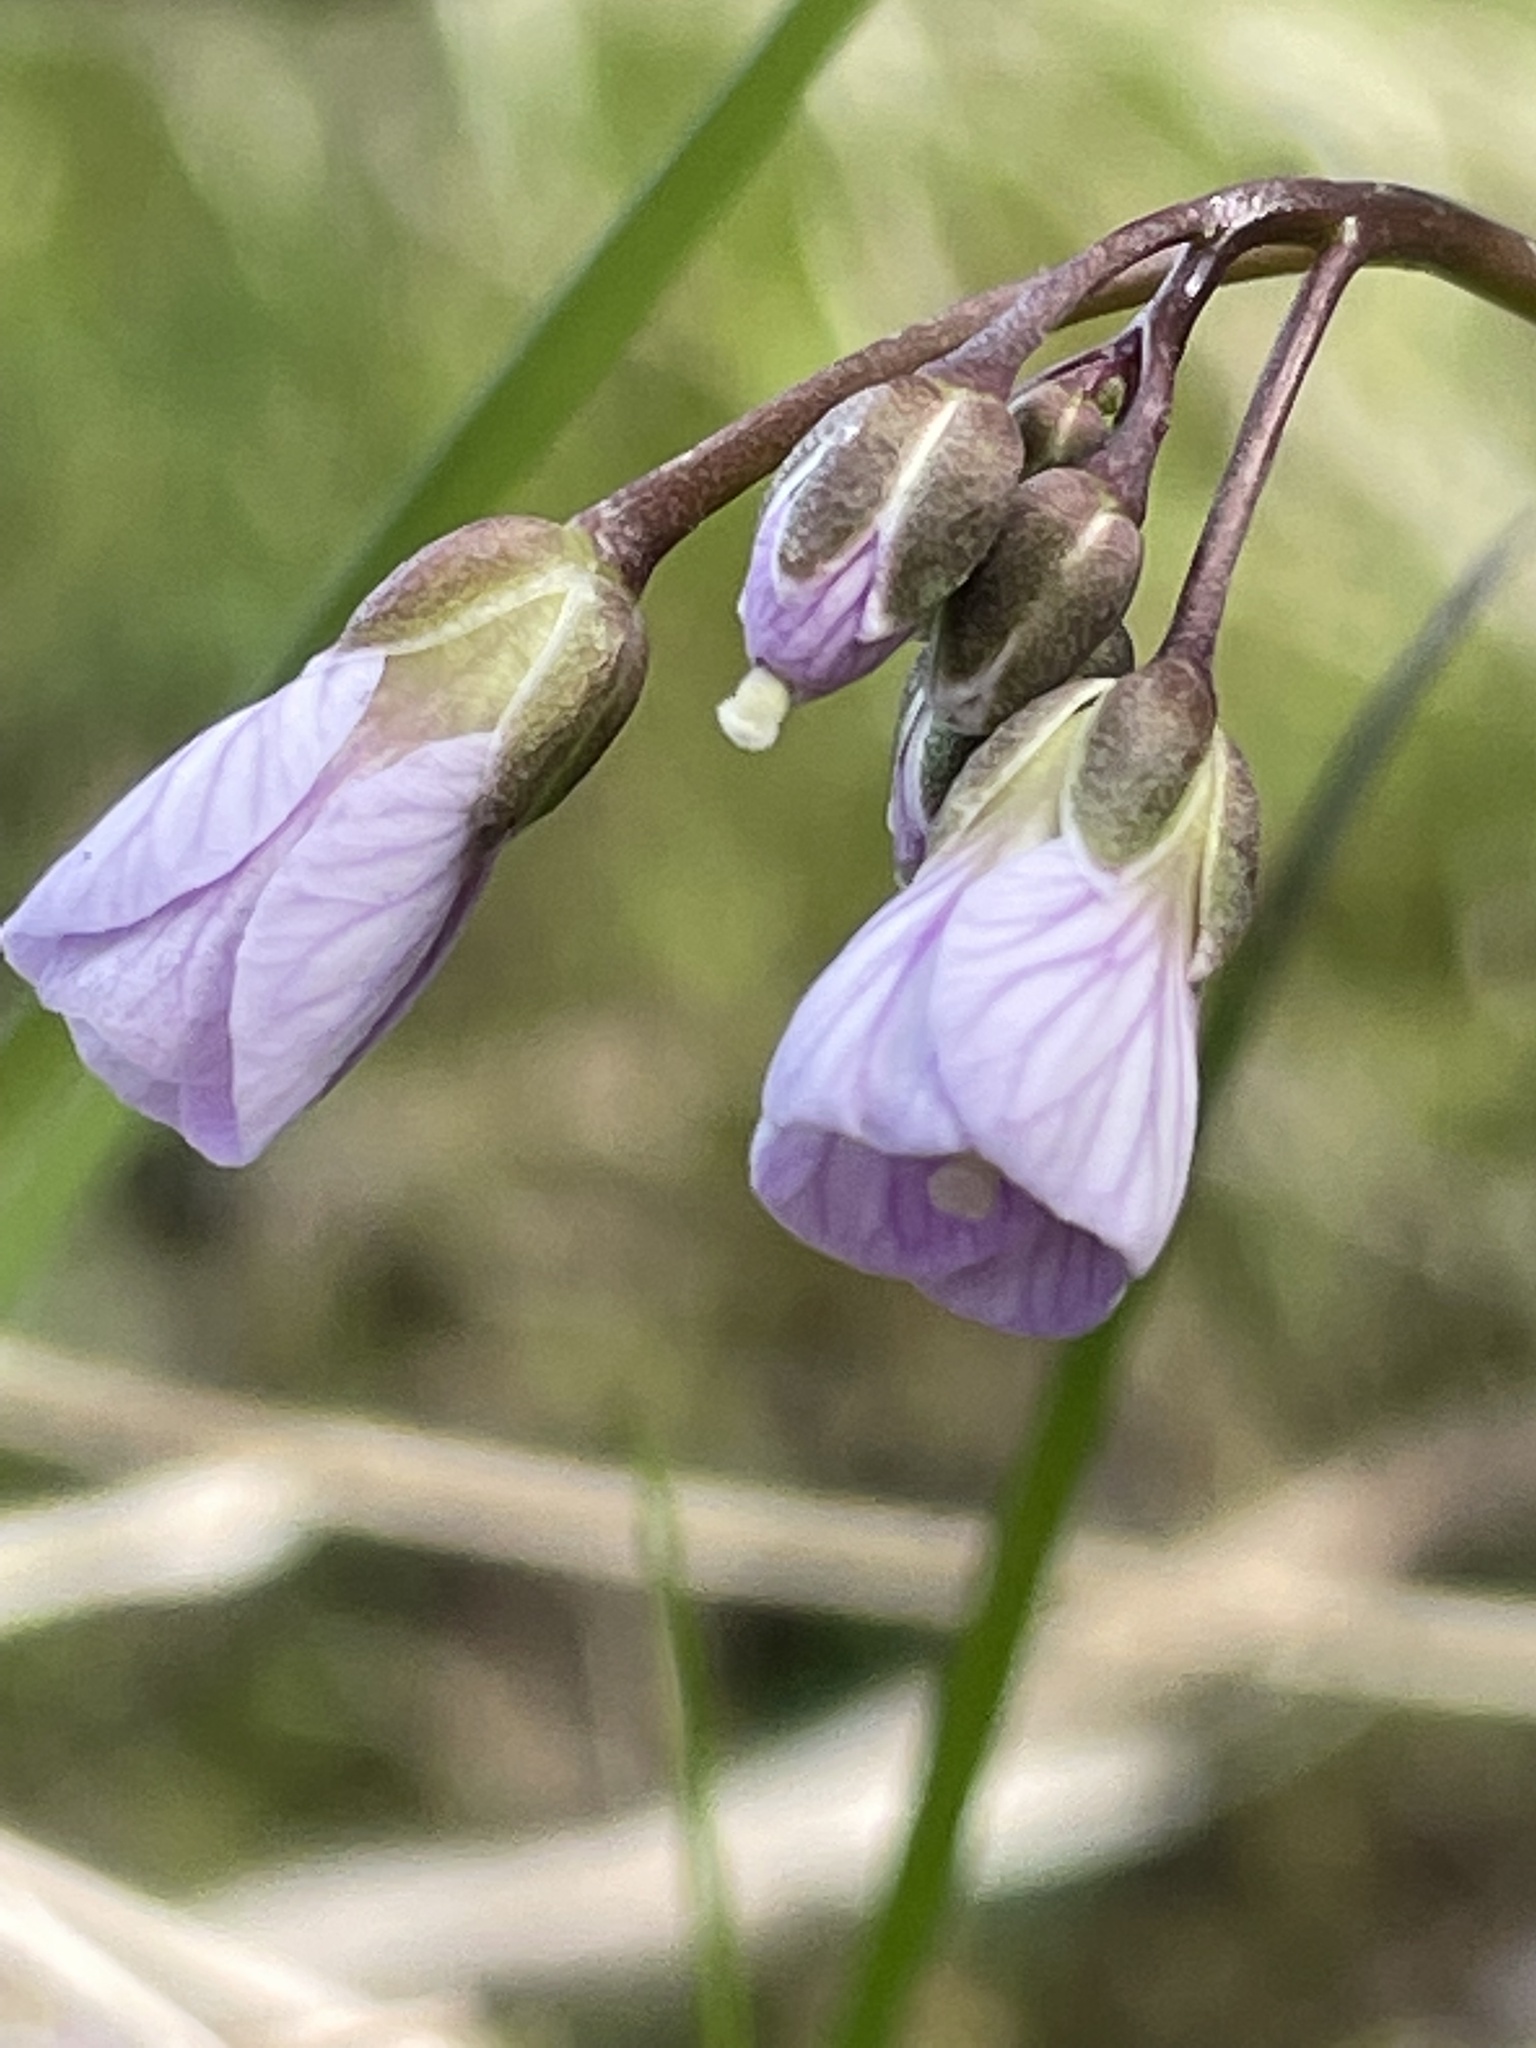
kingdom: Plantae
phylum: Tracheophyta
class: Magnoliopsida
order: Brassicales
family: Brassicaceae
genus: Cardamine
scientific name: Cardamine nuttallii
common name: Nuttall's toothwort
